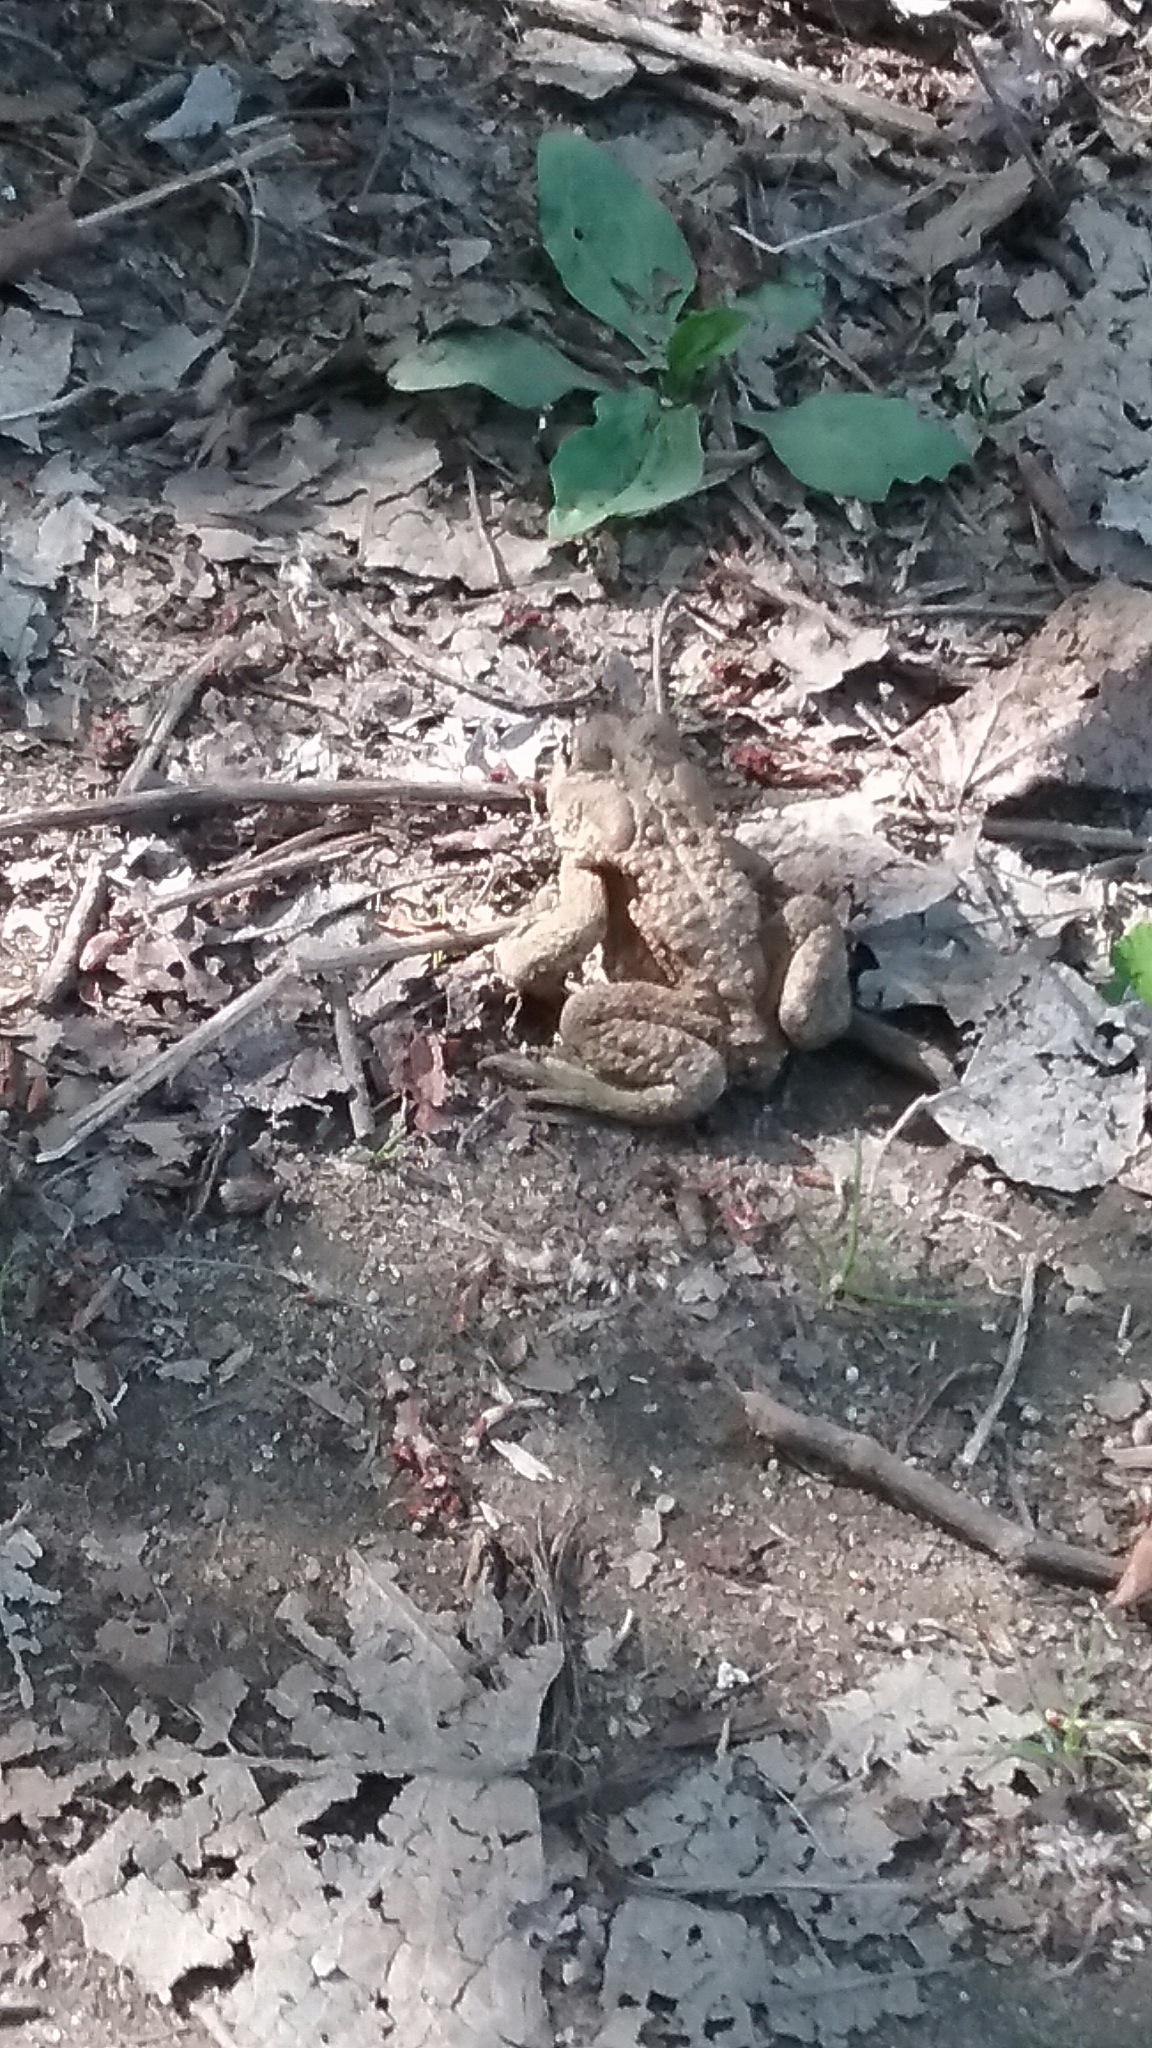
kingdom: Animalia
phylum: Chordata
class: Amphibia
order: Anura
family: Bufonidae
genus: Anaxyrus
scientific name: Anaxyrus americanus
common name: American toad
